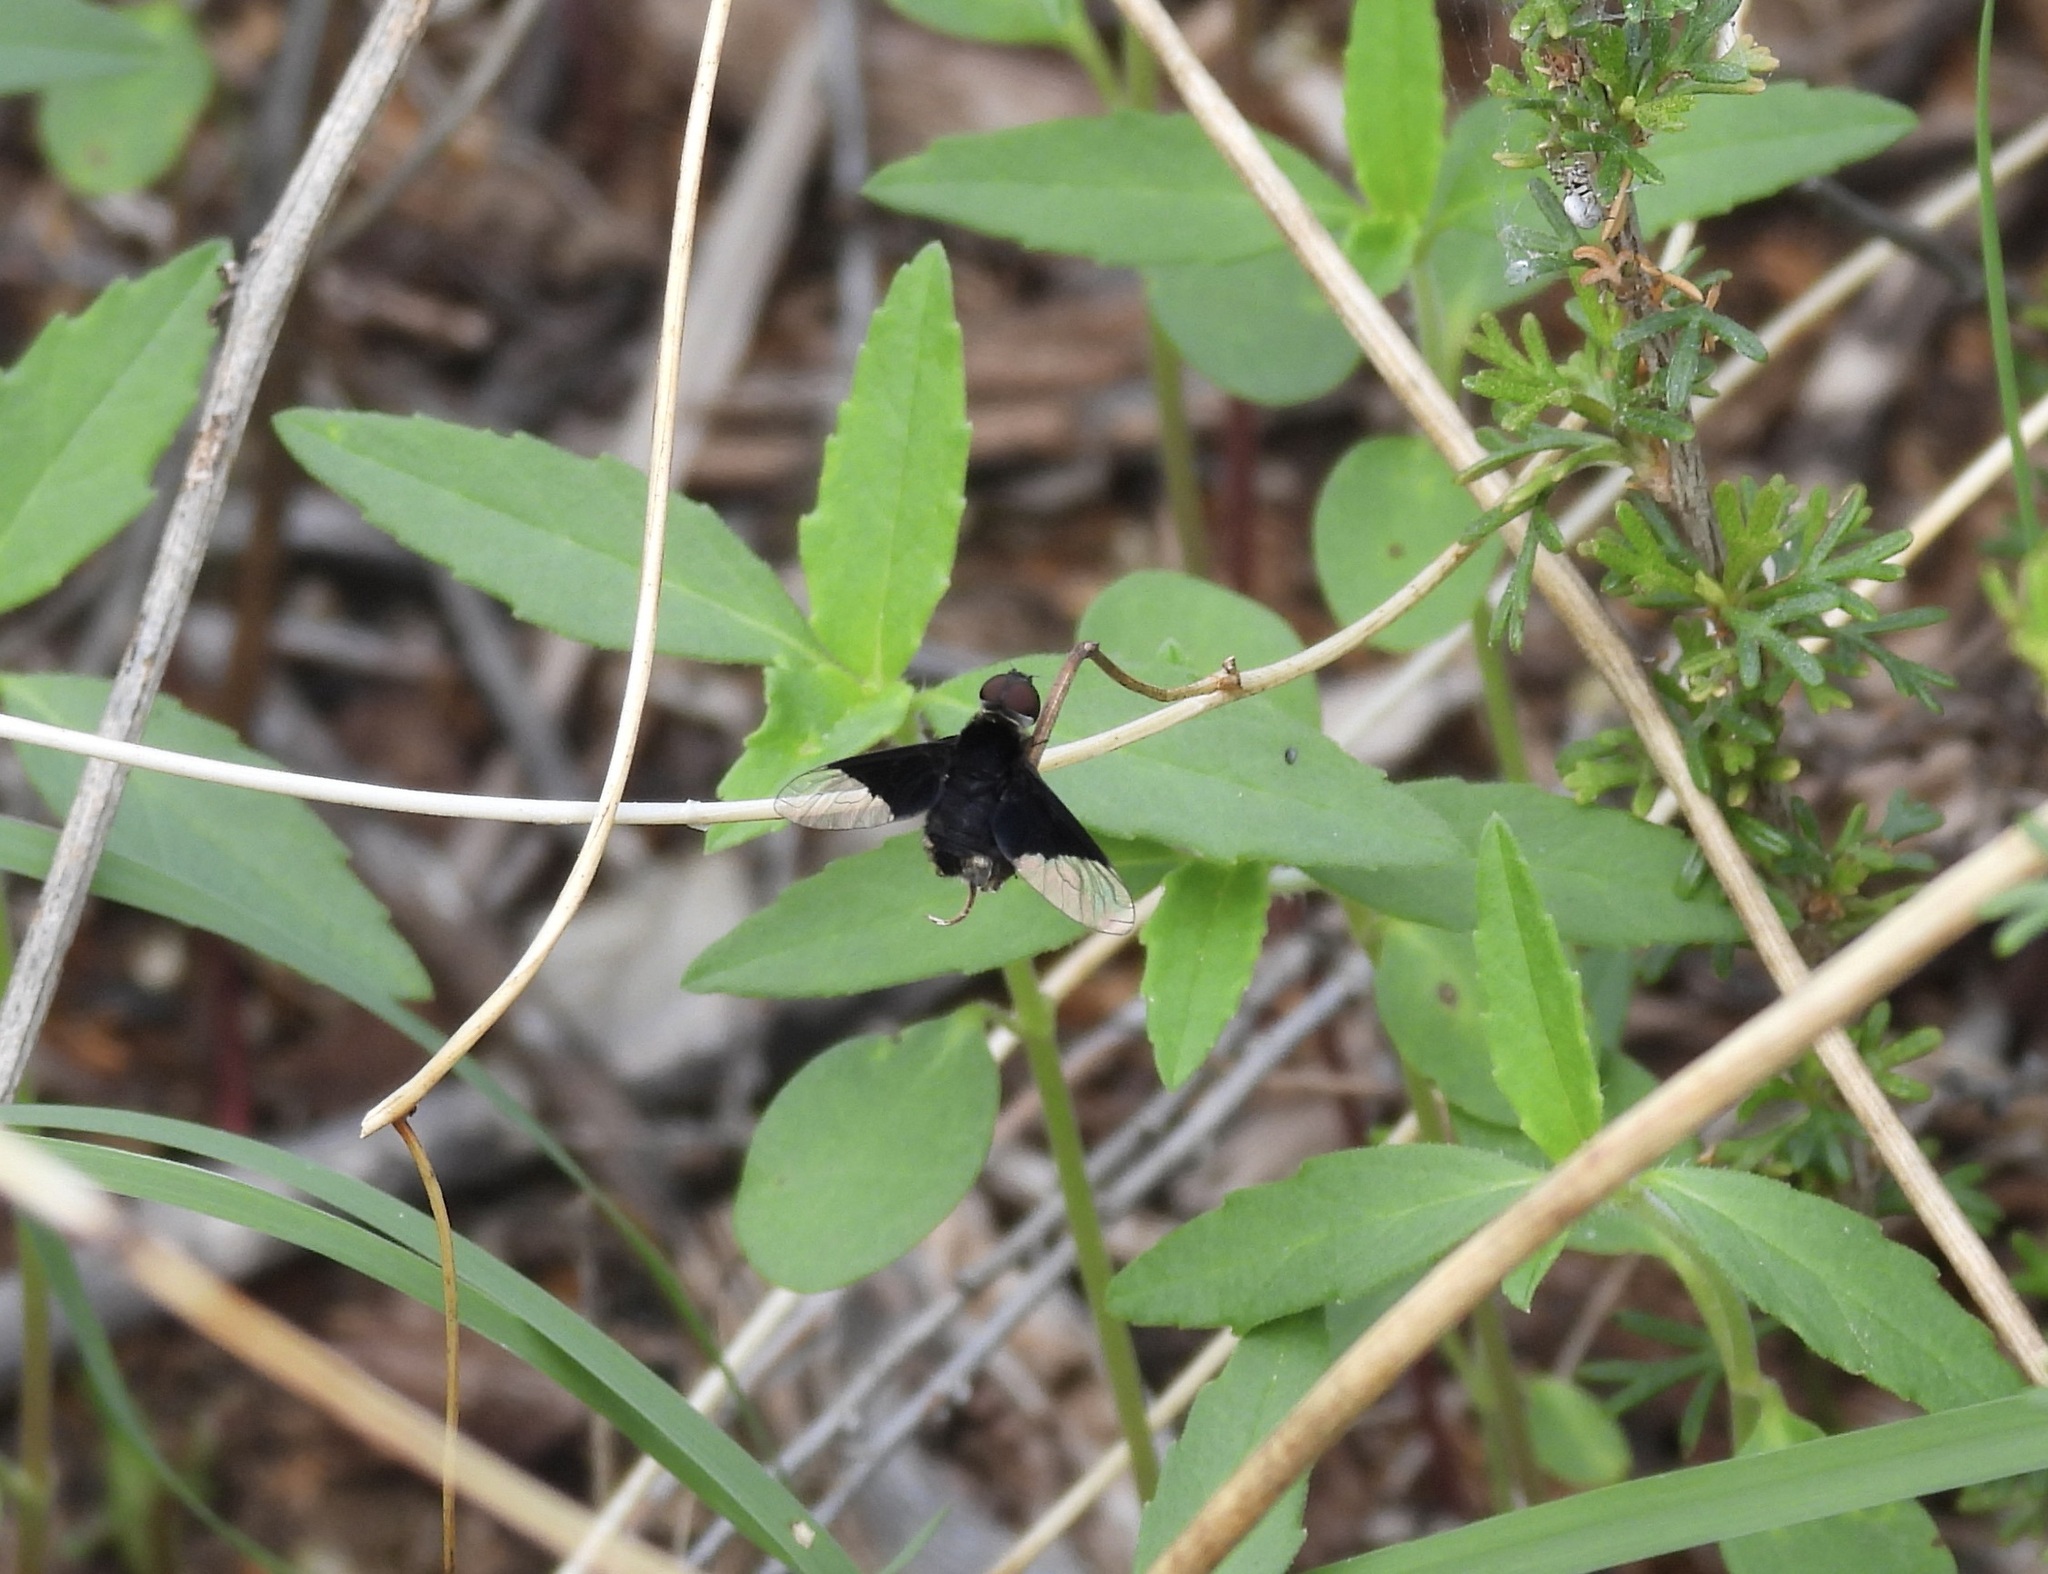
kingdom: Animalia
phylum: Arthropoda
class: Insecta
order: Diptera
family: Bombyliidae
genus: Ins
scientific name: Ins celeris
